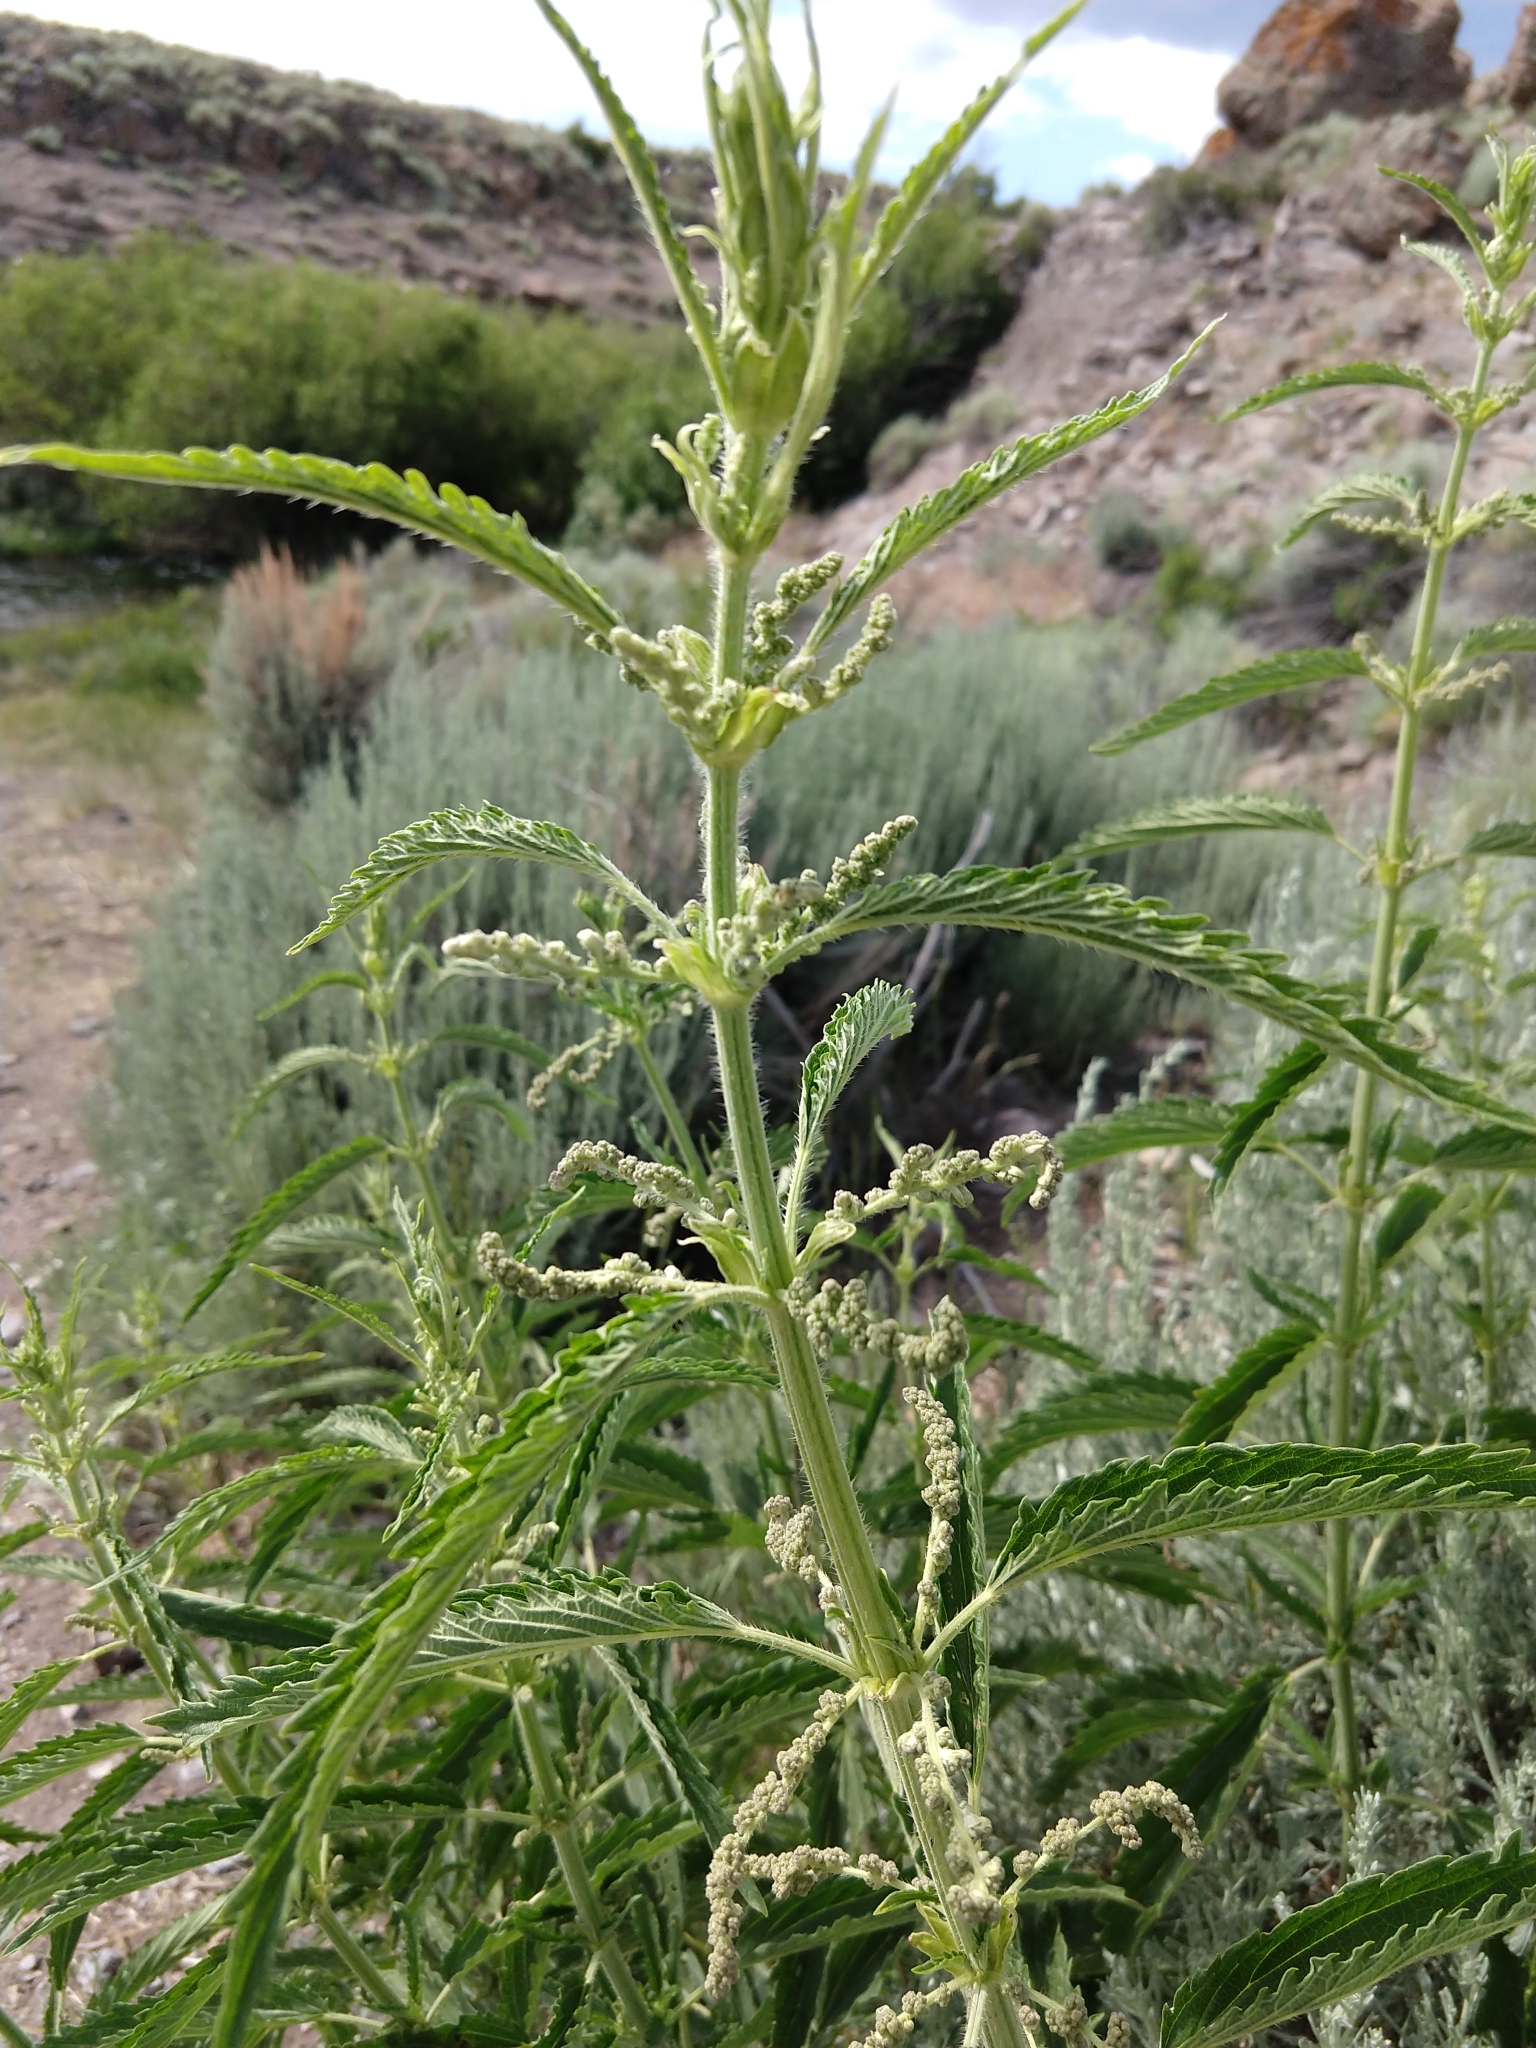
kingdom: Plantae
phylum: Tracheophyta
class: Magnoliopsida
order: Rosales
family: Urticaceae
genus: Urtica
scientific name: Urtica gracilis
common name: Slender stinging nettle
